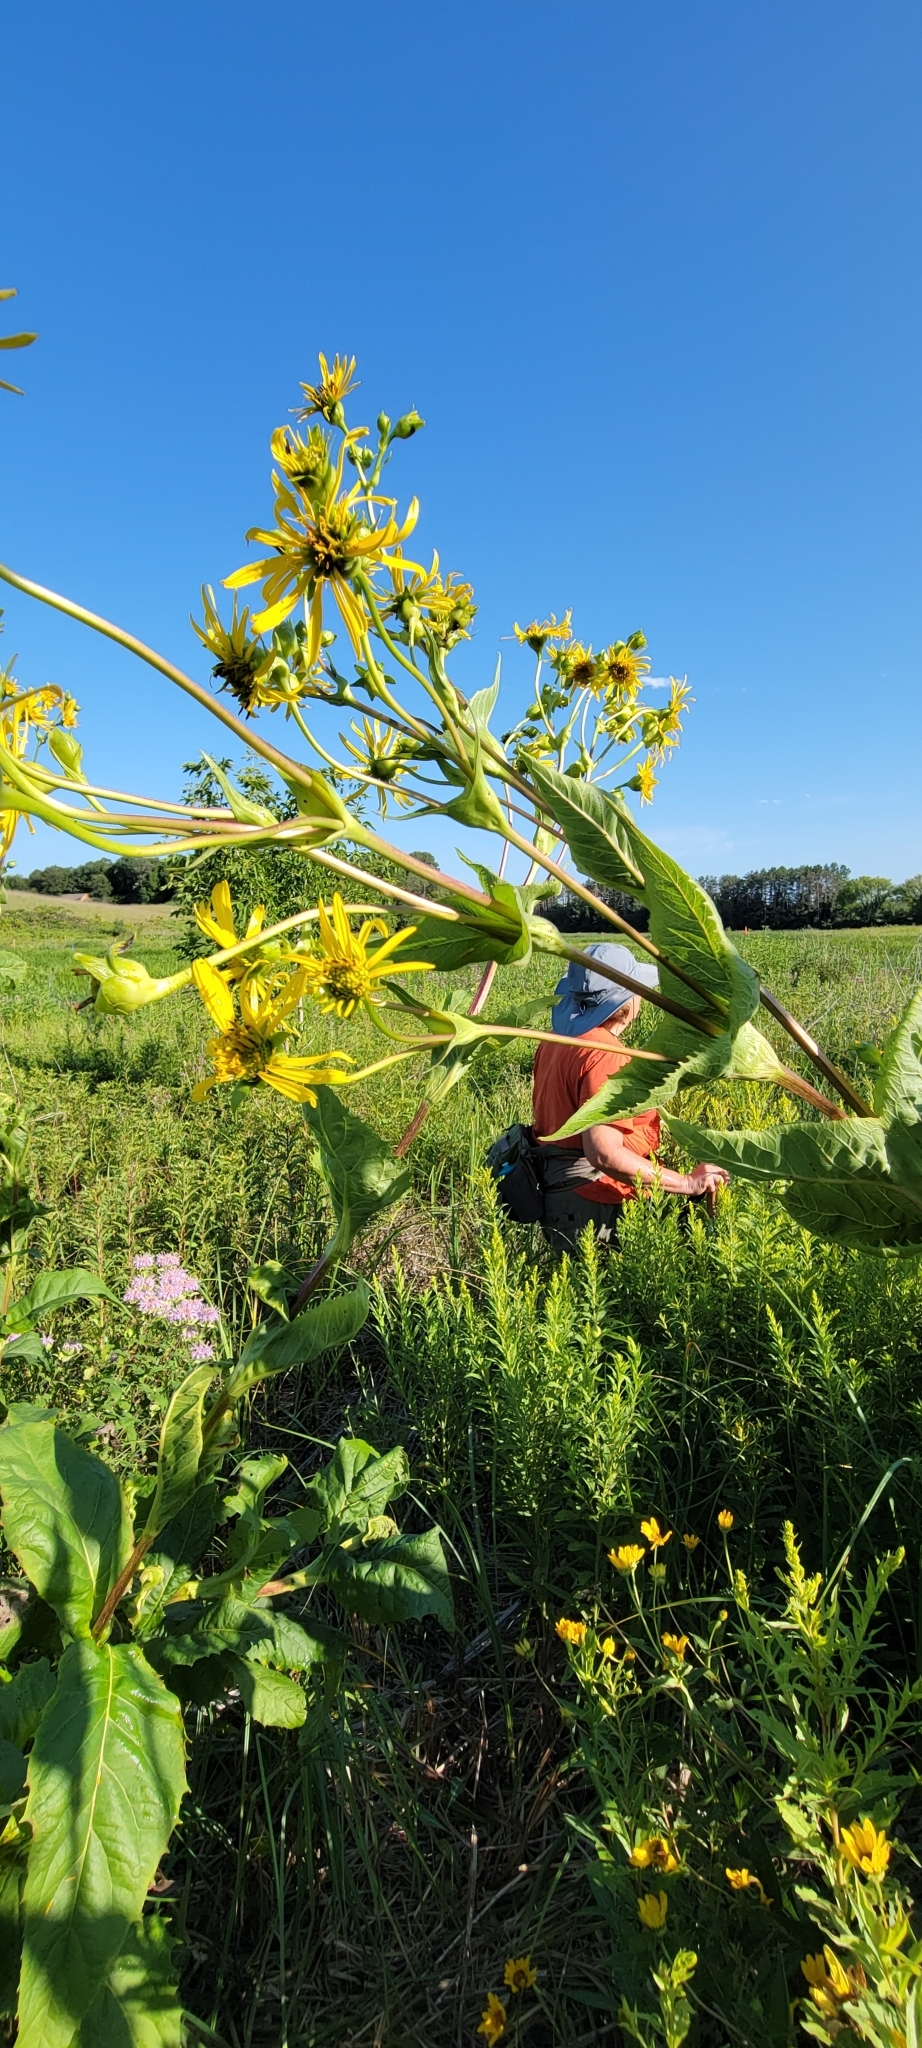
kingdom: Plantae
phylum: Tracheophyta
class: Magnoliopsida
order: Asterales
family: Asteraceae
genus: Silphium
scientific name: Silphium perfoliatum
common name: Cup-plant
